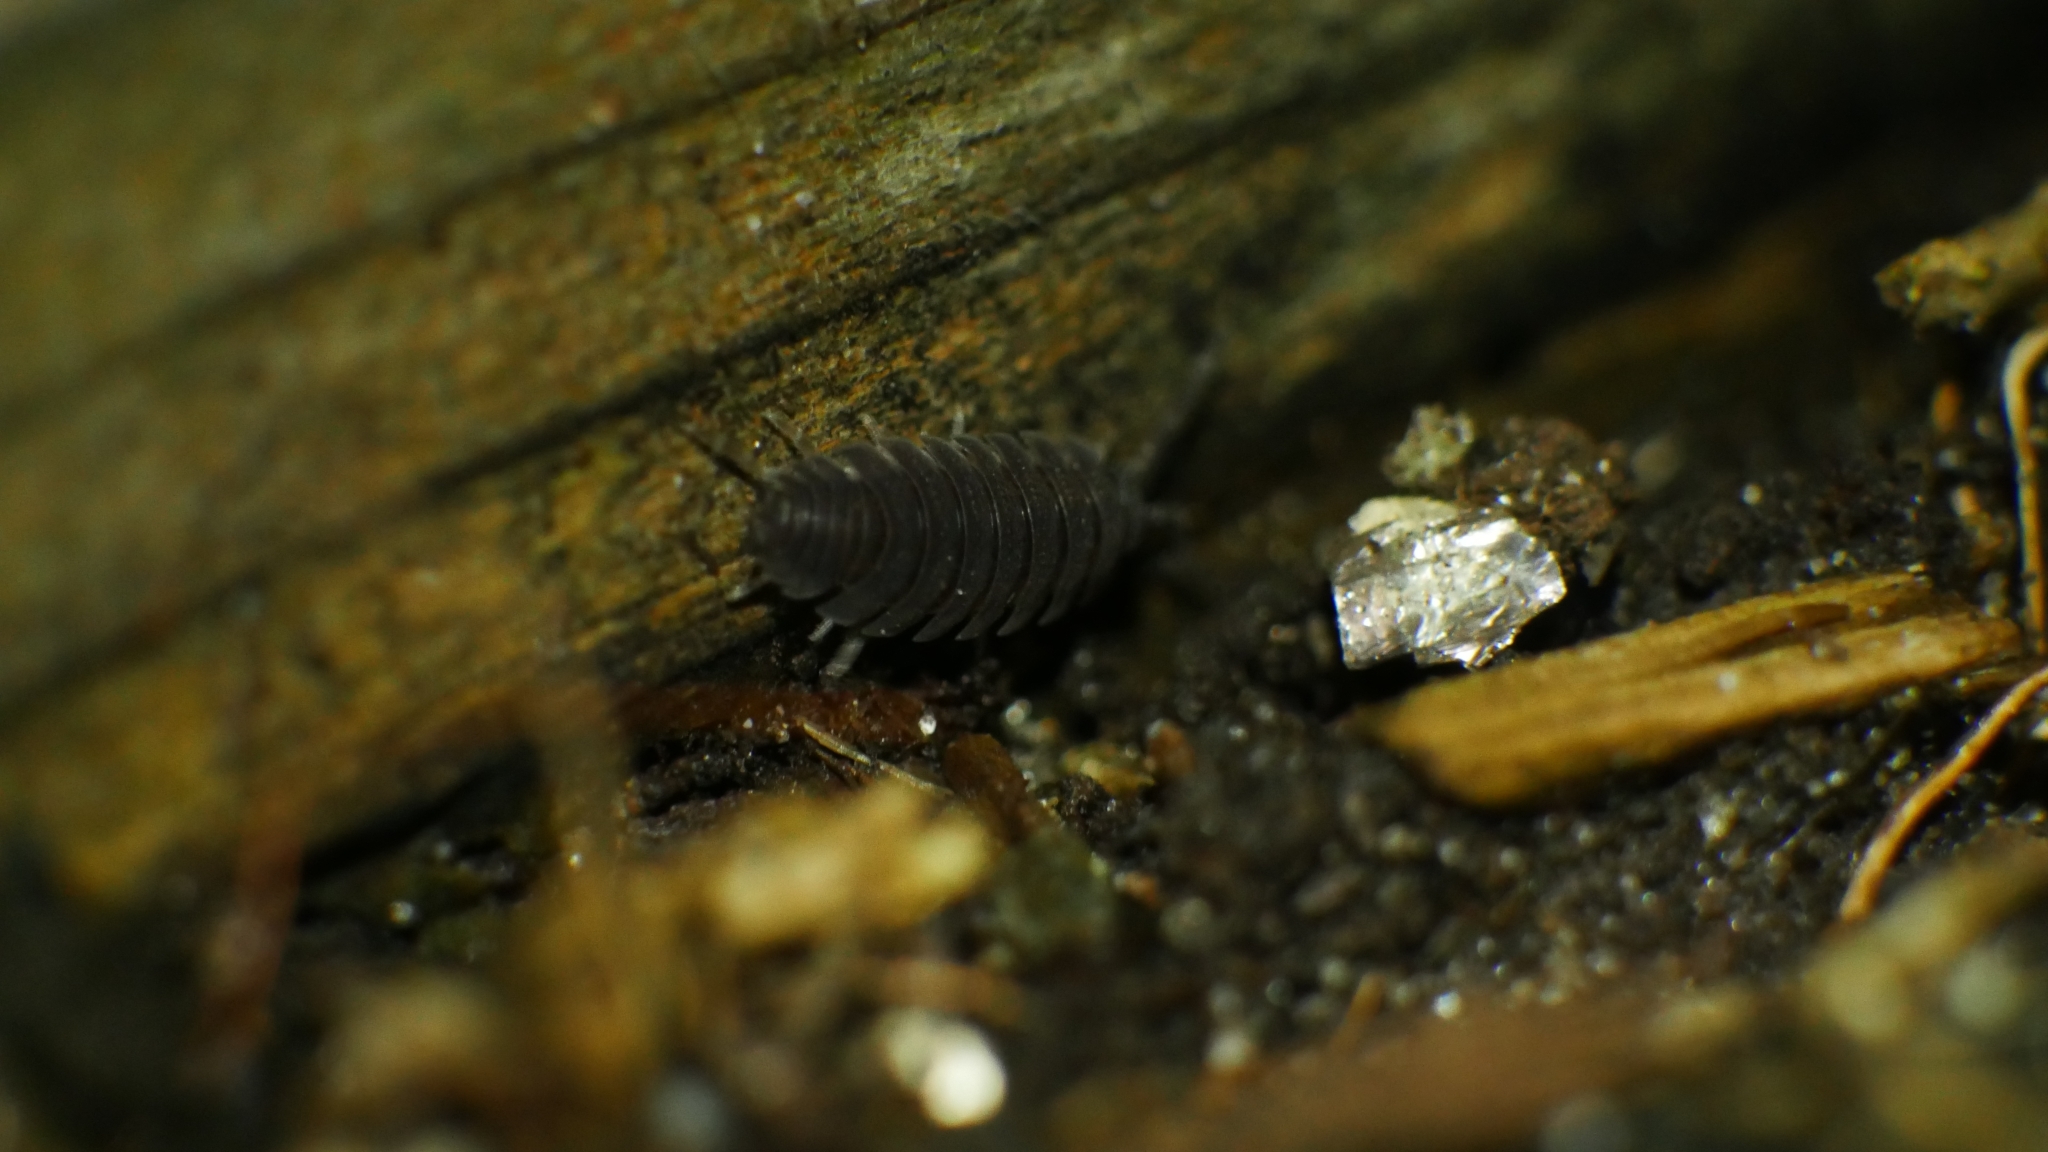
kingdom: Animalia
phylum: Arthropoda
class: Malacostraca
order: Isopoda
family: Porcellionidae
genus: Porcellio
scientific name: Porcellio scaber
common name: Common rough woodlouse
